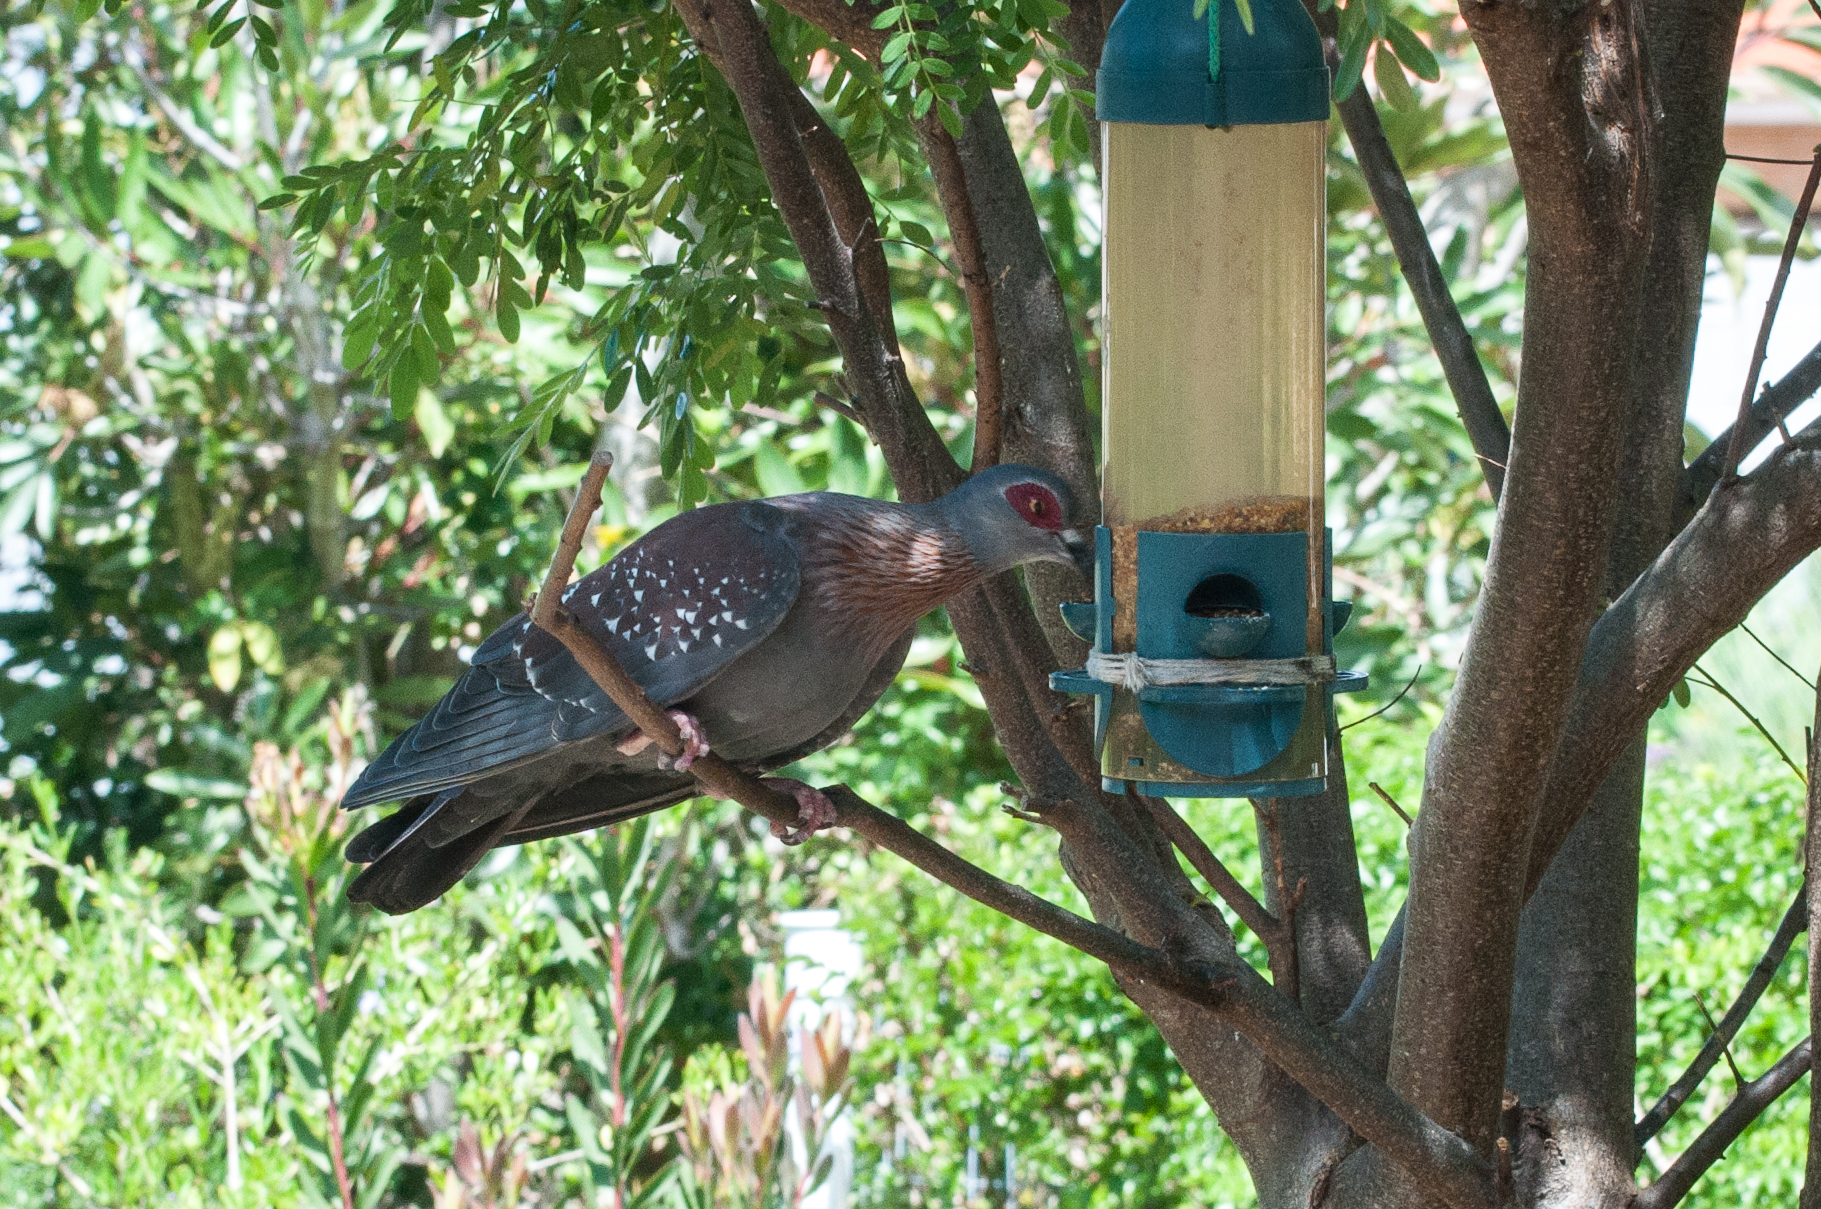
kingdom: Animalia
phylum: Chordata
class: Aves
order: Columbiformes
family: Columbidae
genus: Columba
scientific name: Columba guinea
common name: Speckled pigeon
